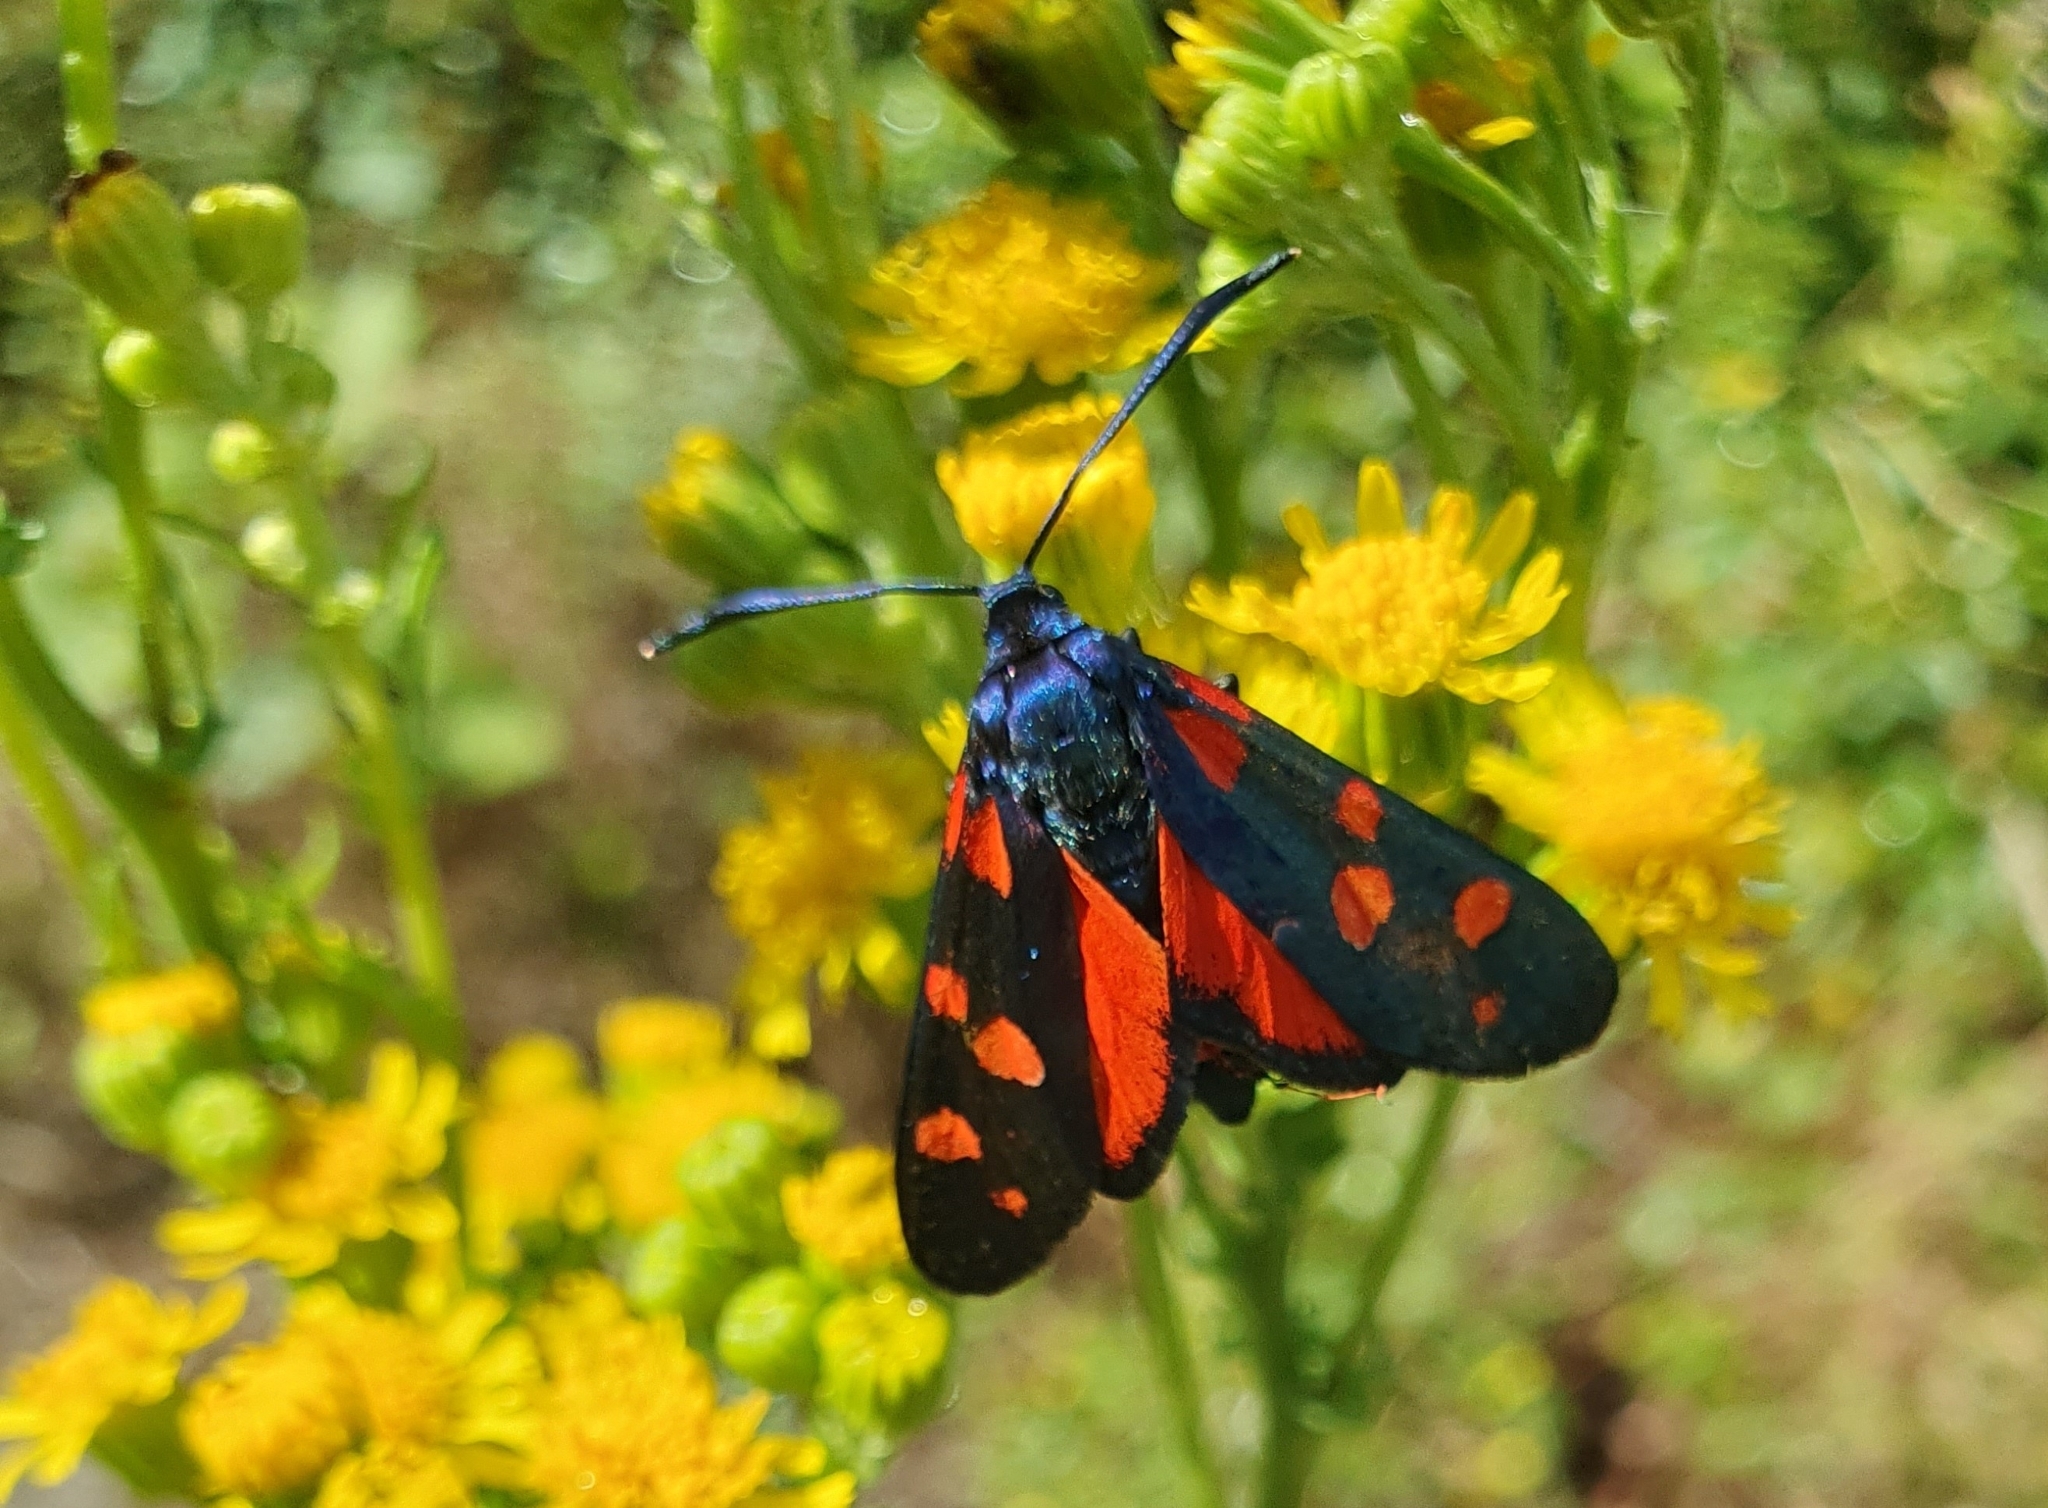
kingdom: Animalia
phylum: Arthropoda
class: Insecta
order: Lepidoptera
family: Zygaenidae
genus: Zygaena
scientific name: Zygaena ephialtes
